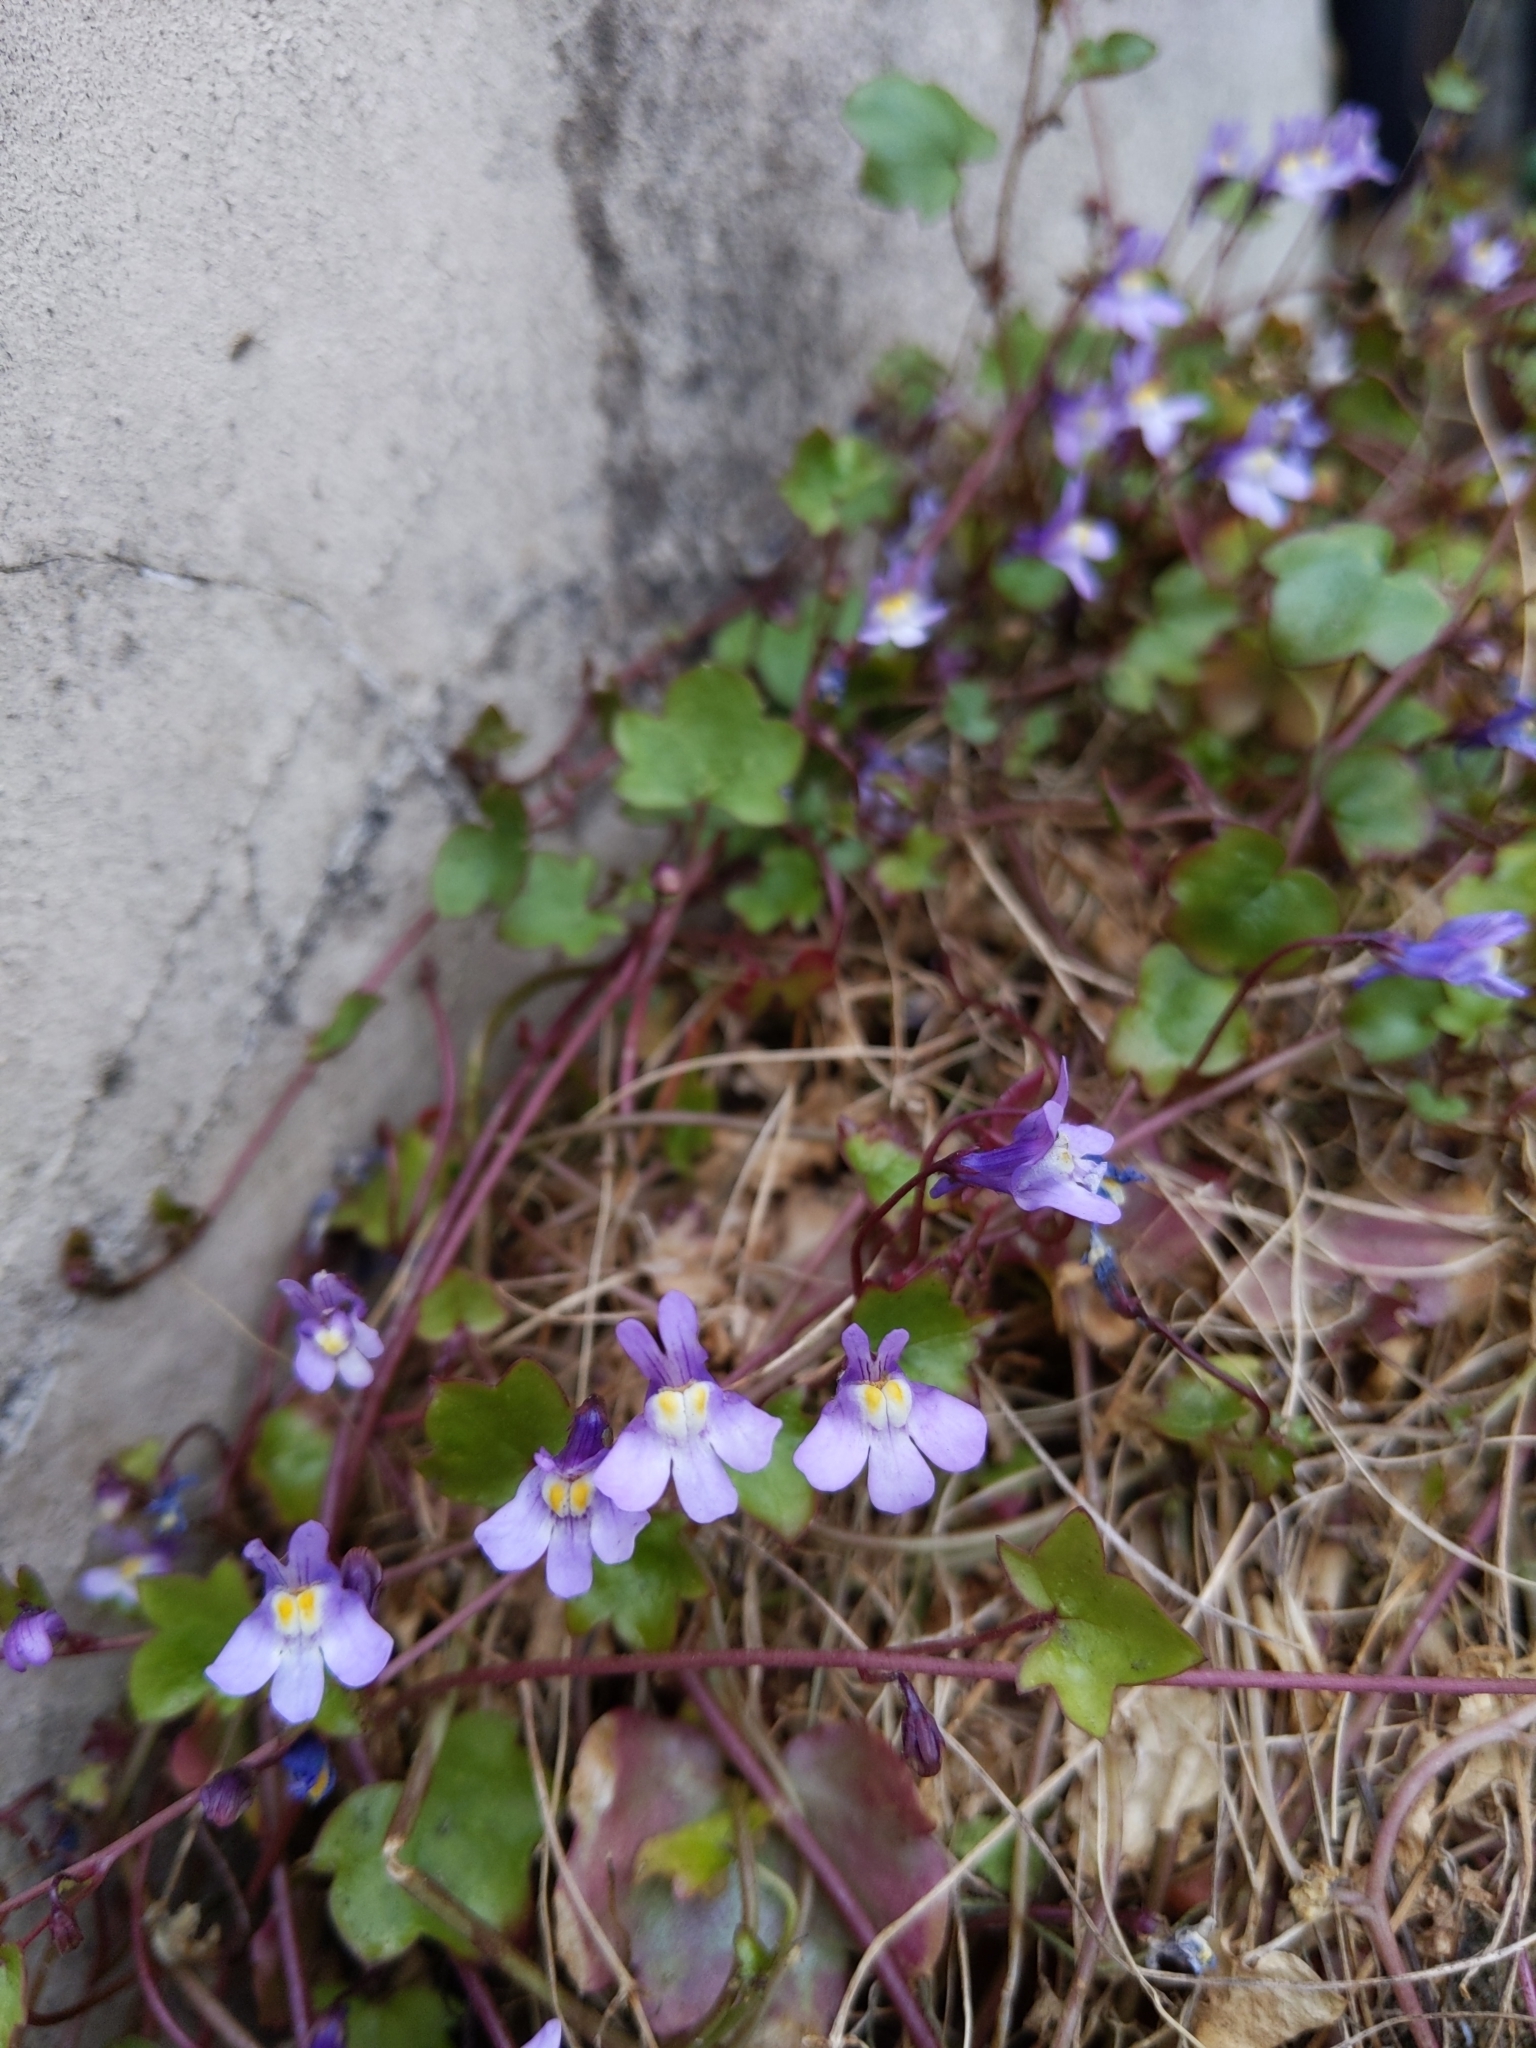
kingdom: Plantae
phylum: Tracheophyta
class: Magnoliopsida
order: Lamiales
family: Plantaginaceae
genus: Cymbalaria
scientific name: Cymbalaria muralis
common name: Ivy-leaved toadflax
